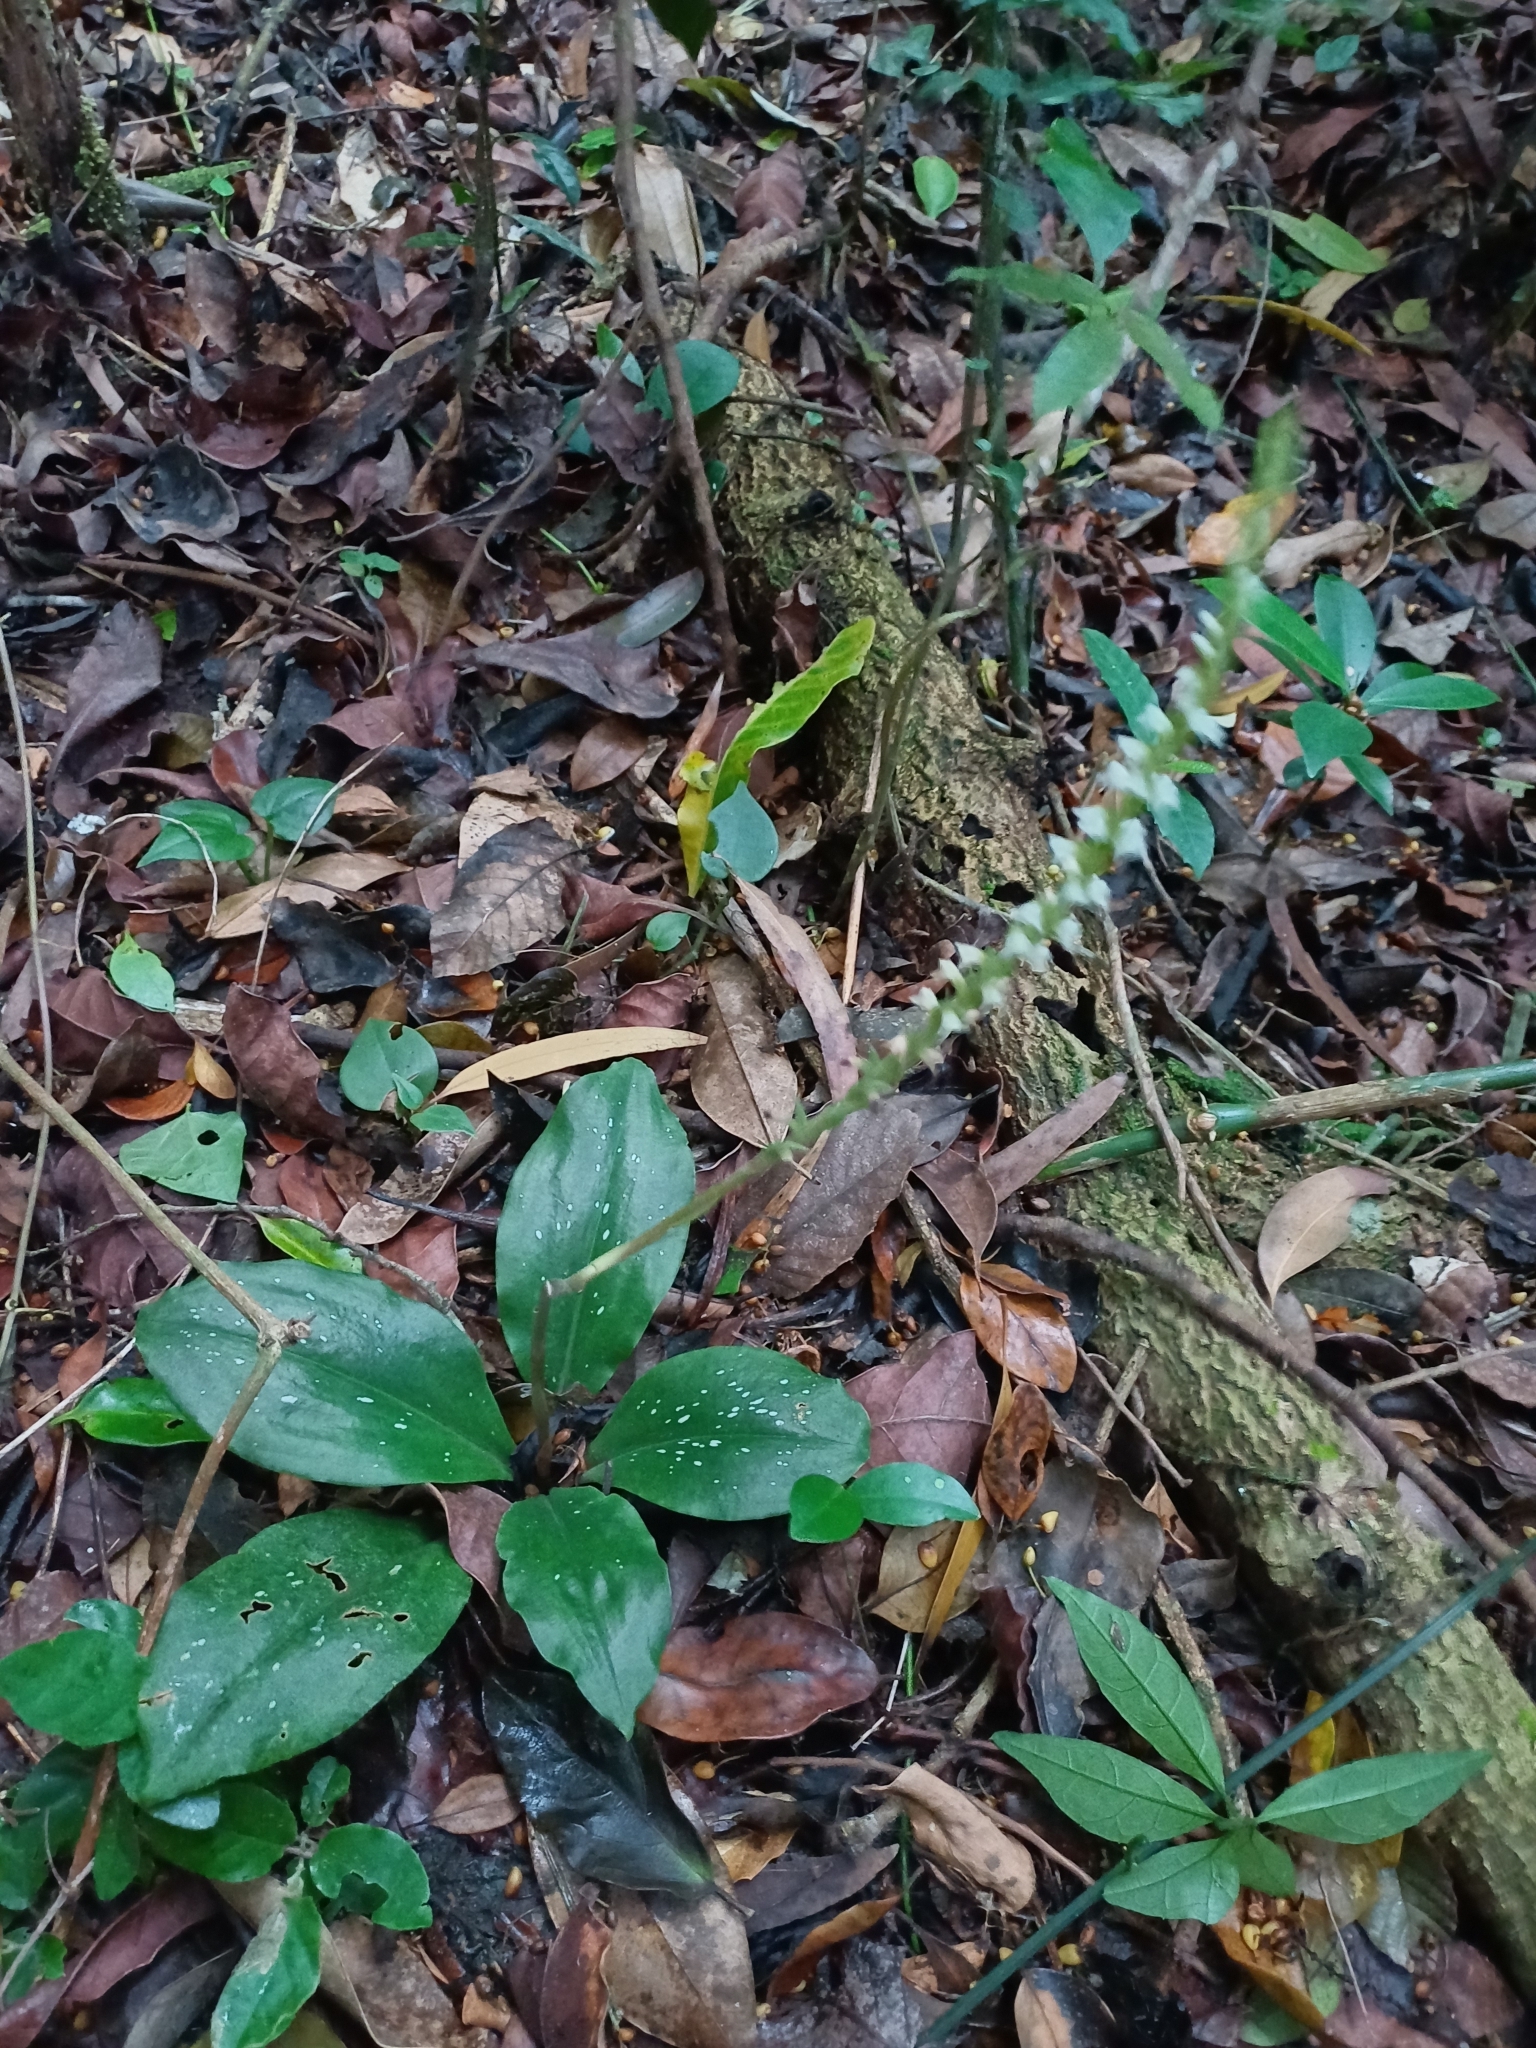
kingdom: Plantae
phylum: Tracheophyta
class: Liliopsida
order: Asparagales
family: Orchidaceae
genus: Mesadenella
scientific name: Mesadenella cuspidata
